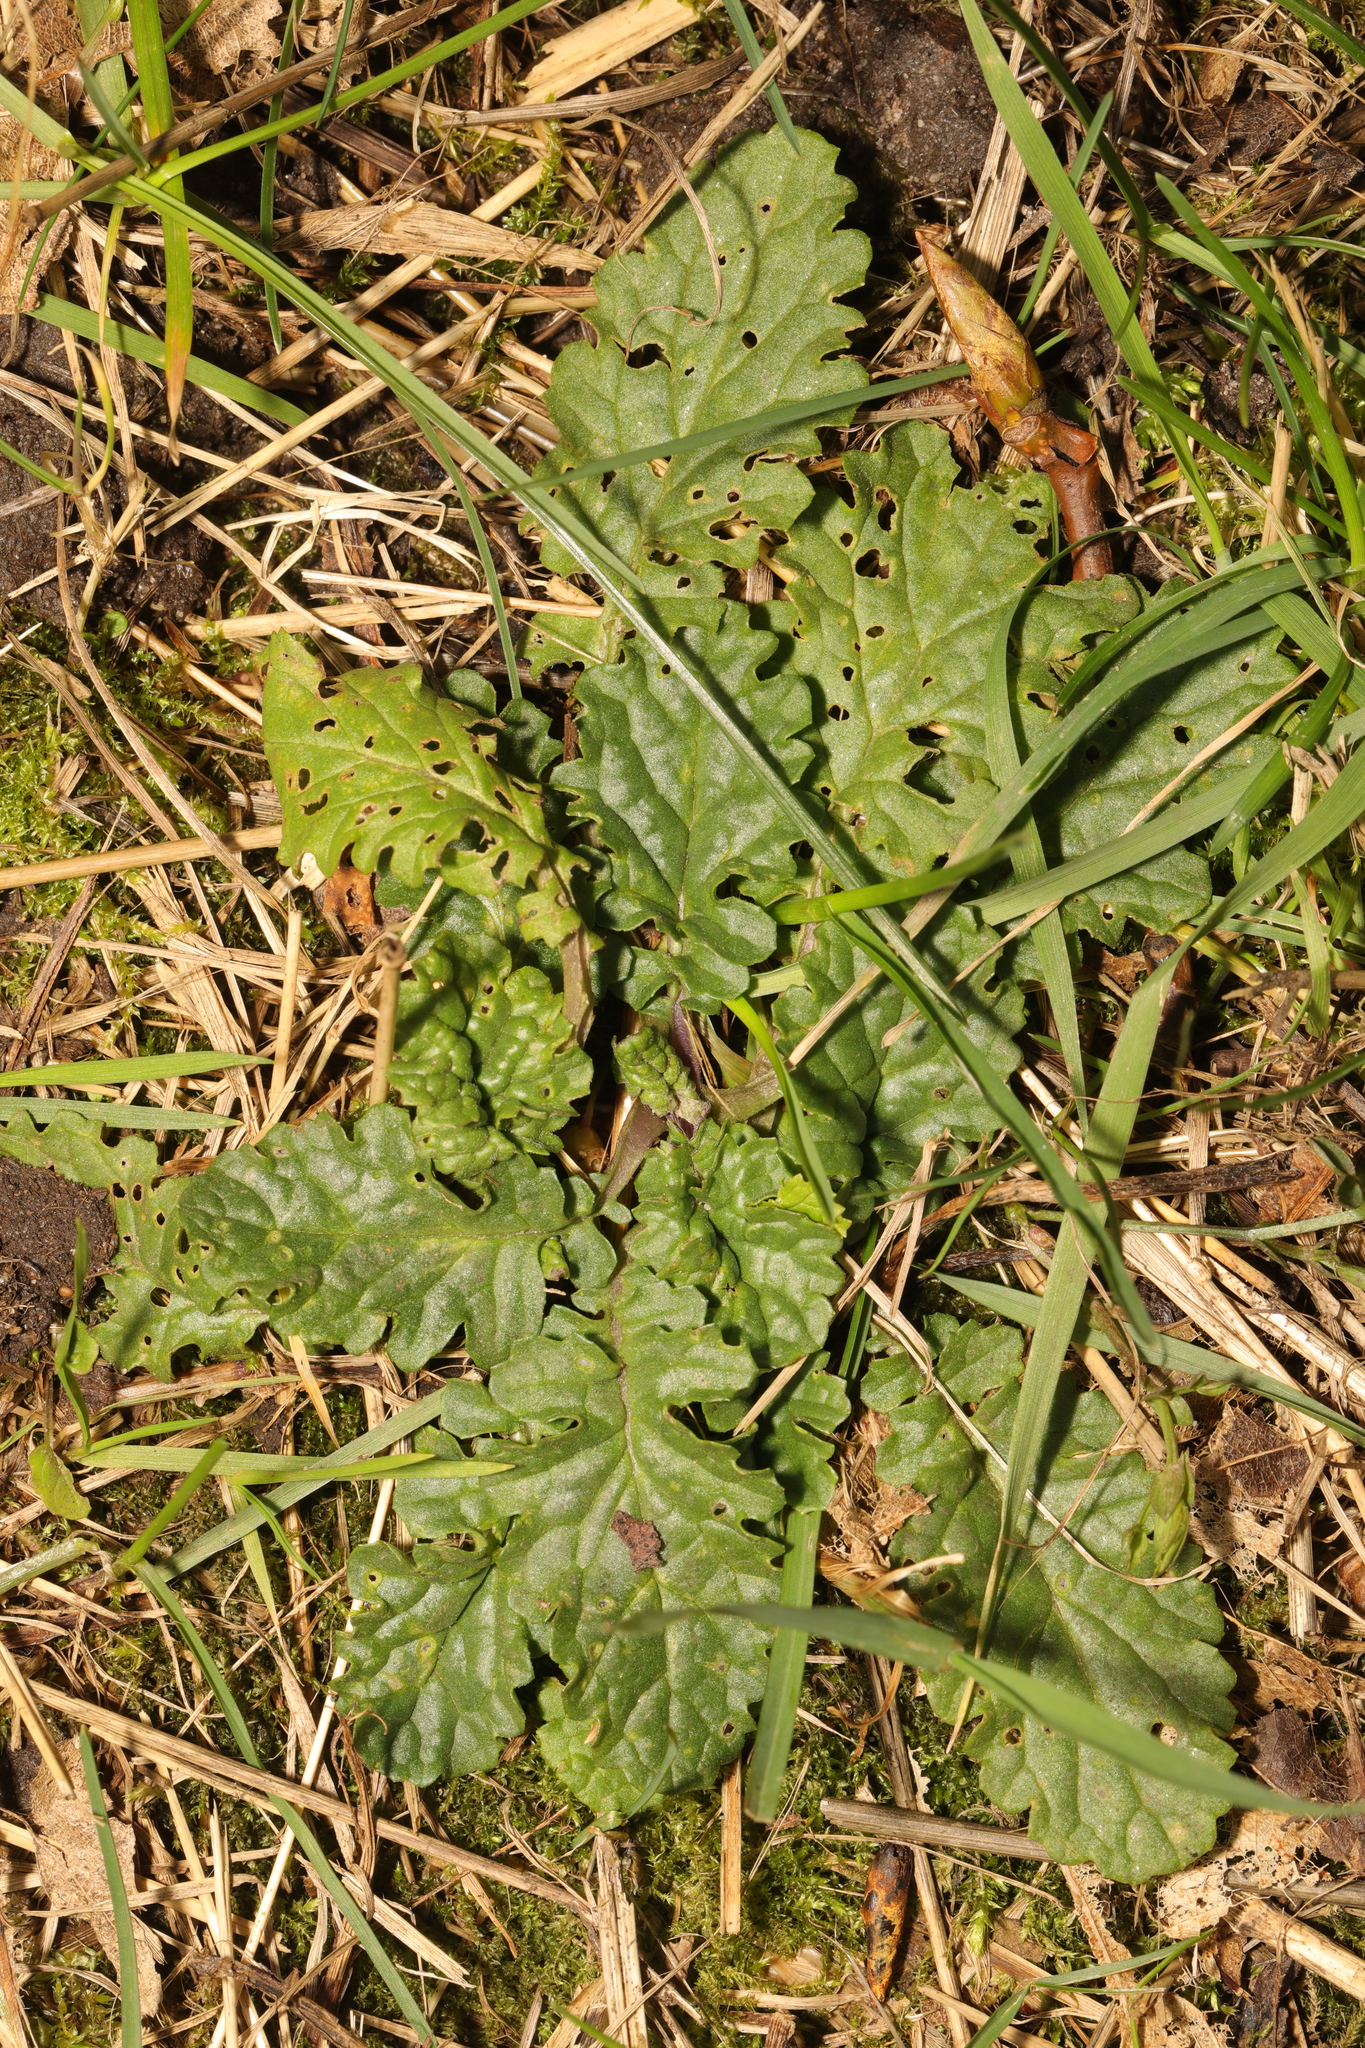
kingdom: Plantae
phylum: Tracheophyta
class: Magnoliopsida
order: Asterales
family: Asteraceae
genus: Jacobaea
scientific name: Jacobaea vulgaris
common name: Stinking willie
